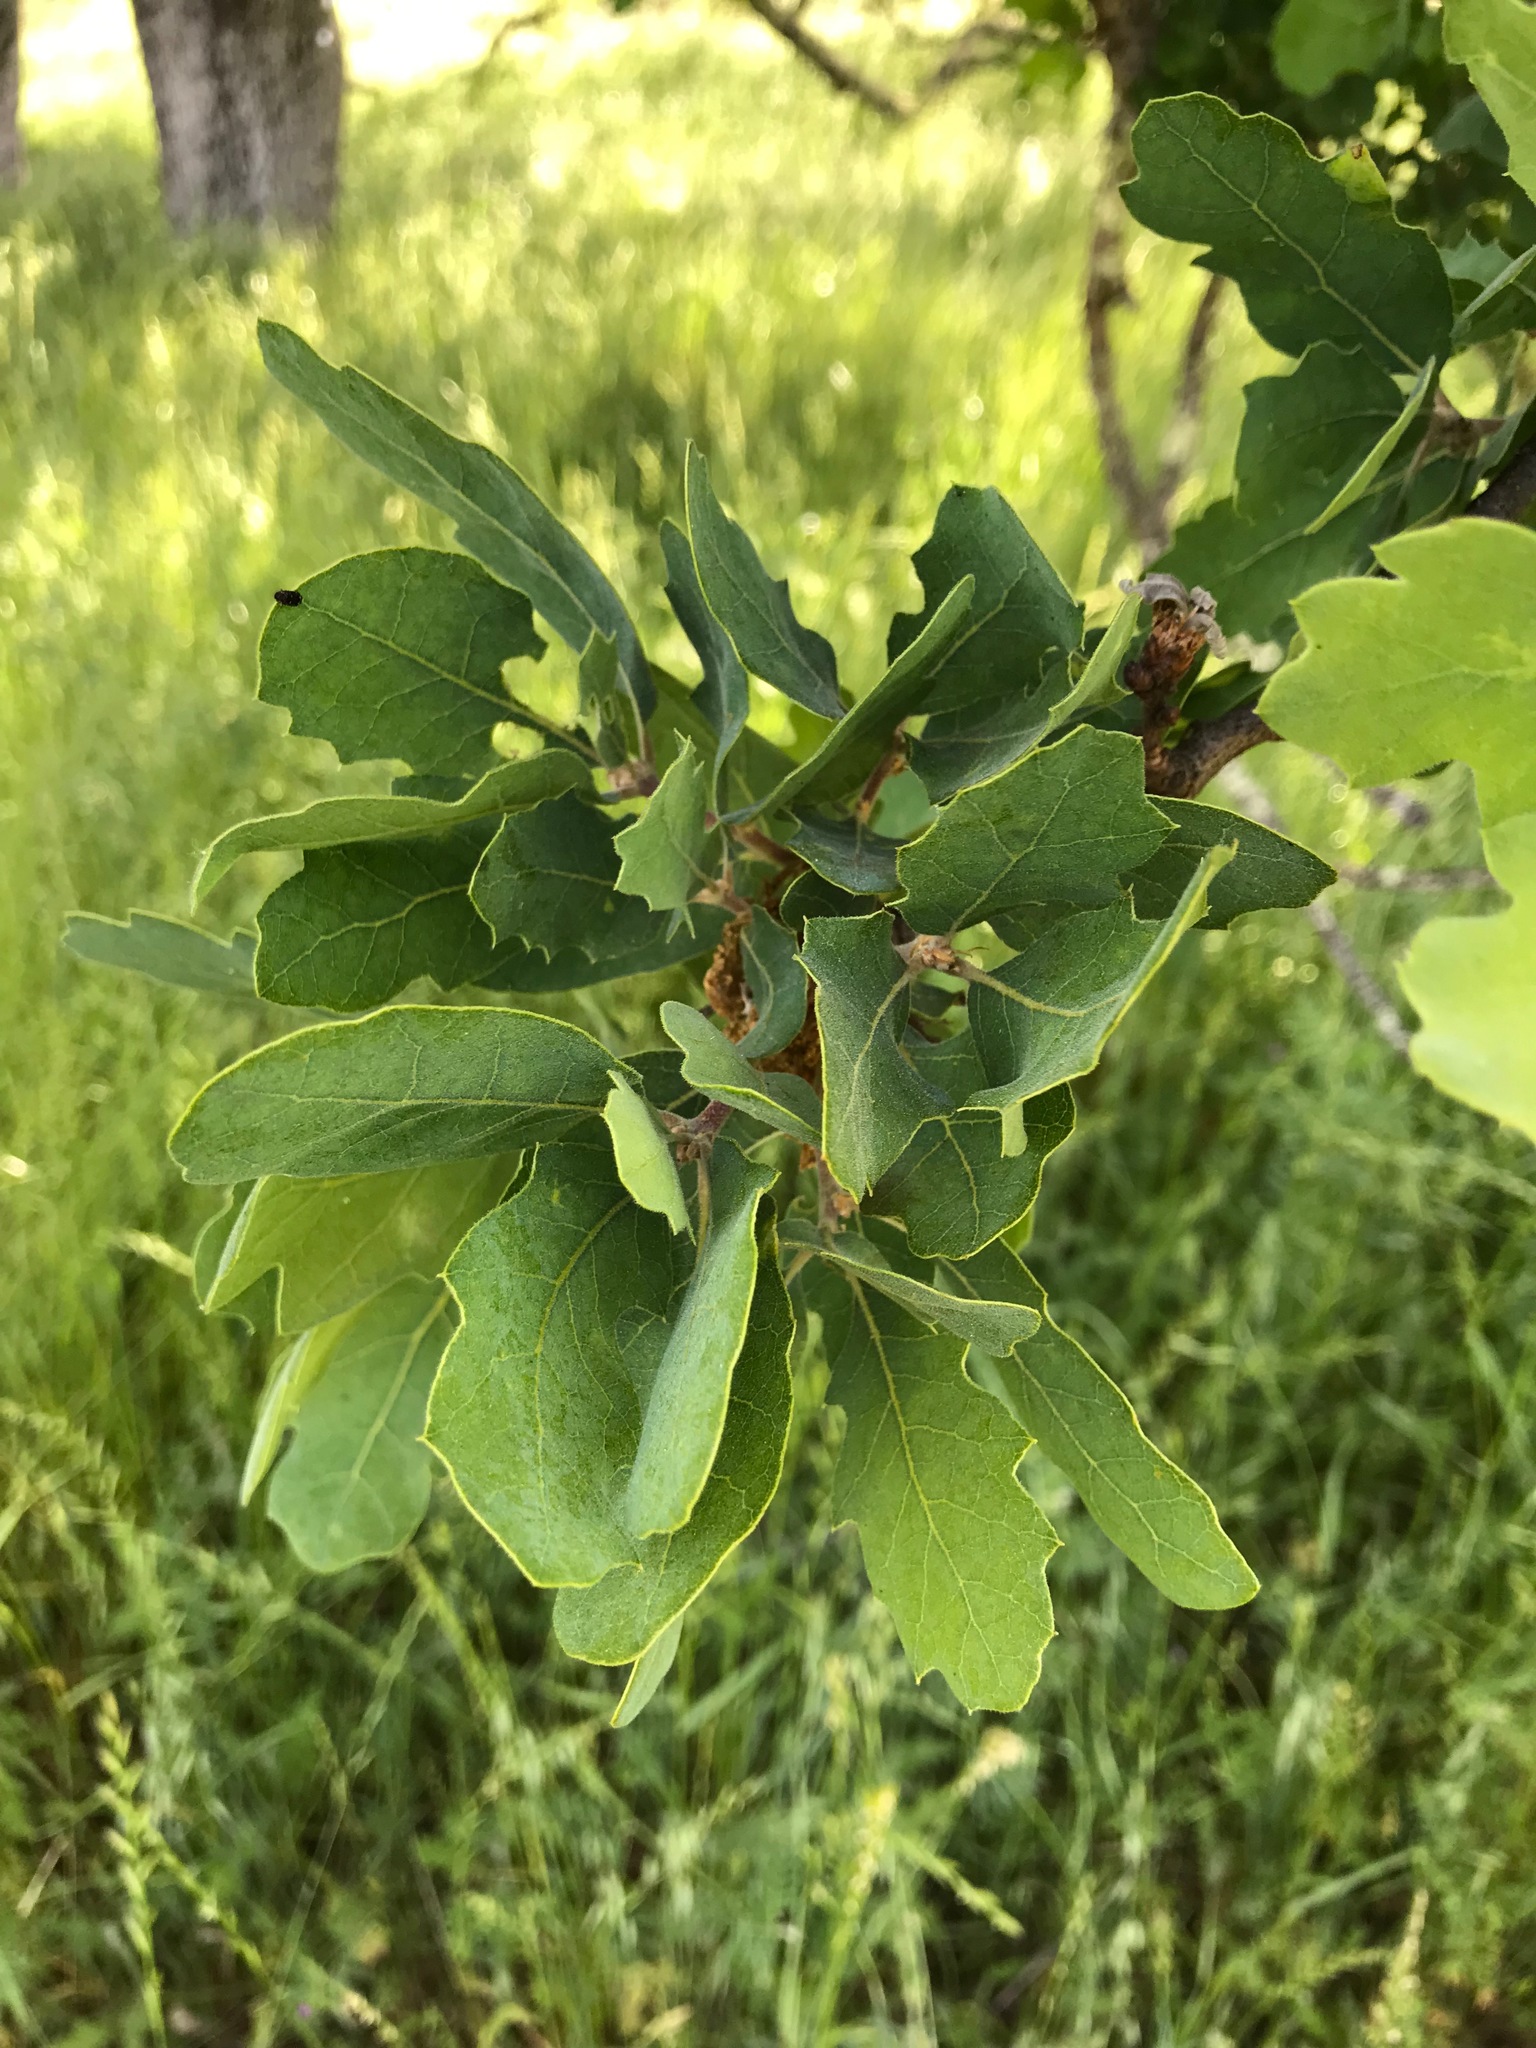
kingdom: Plantae
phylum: Tracheophyta
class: Magnoliopsida
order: Fagales
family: Fagaceae
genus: Quercus
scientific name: Quercus douglasii
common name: Blue oak
